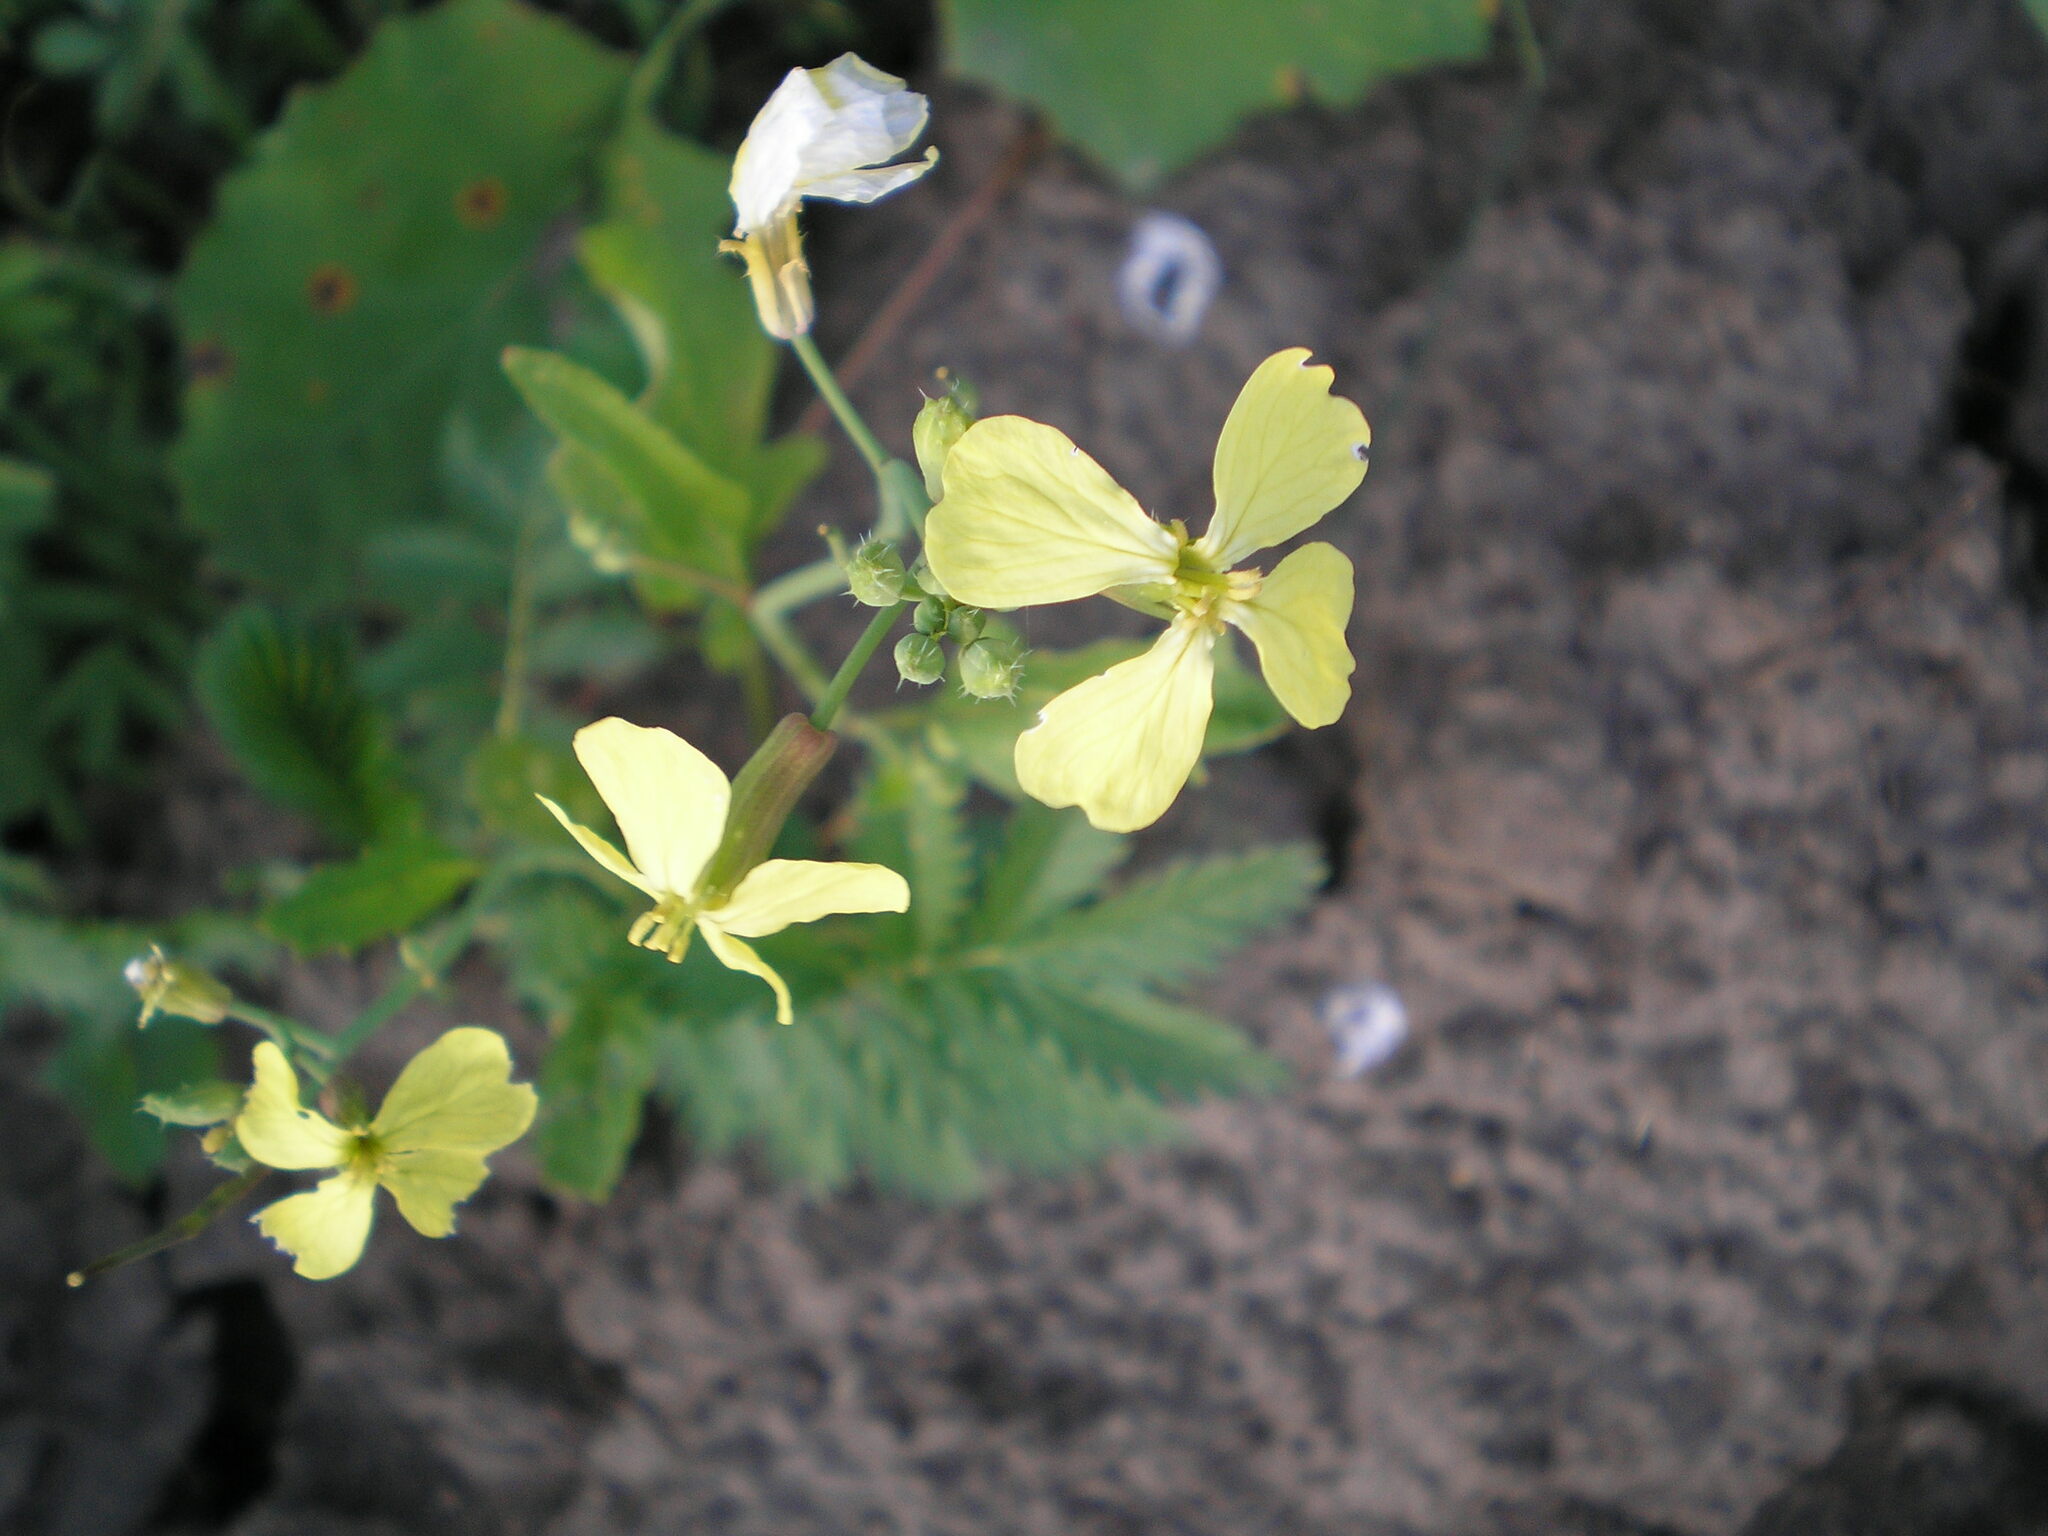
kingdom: Plantae
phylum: Tracheophyta
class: Magnoliopsida
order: Brassicales
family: Brassicaceae
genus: Raphanus
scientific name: Raphanus raphanistrum
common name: Wild radish
